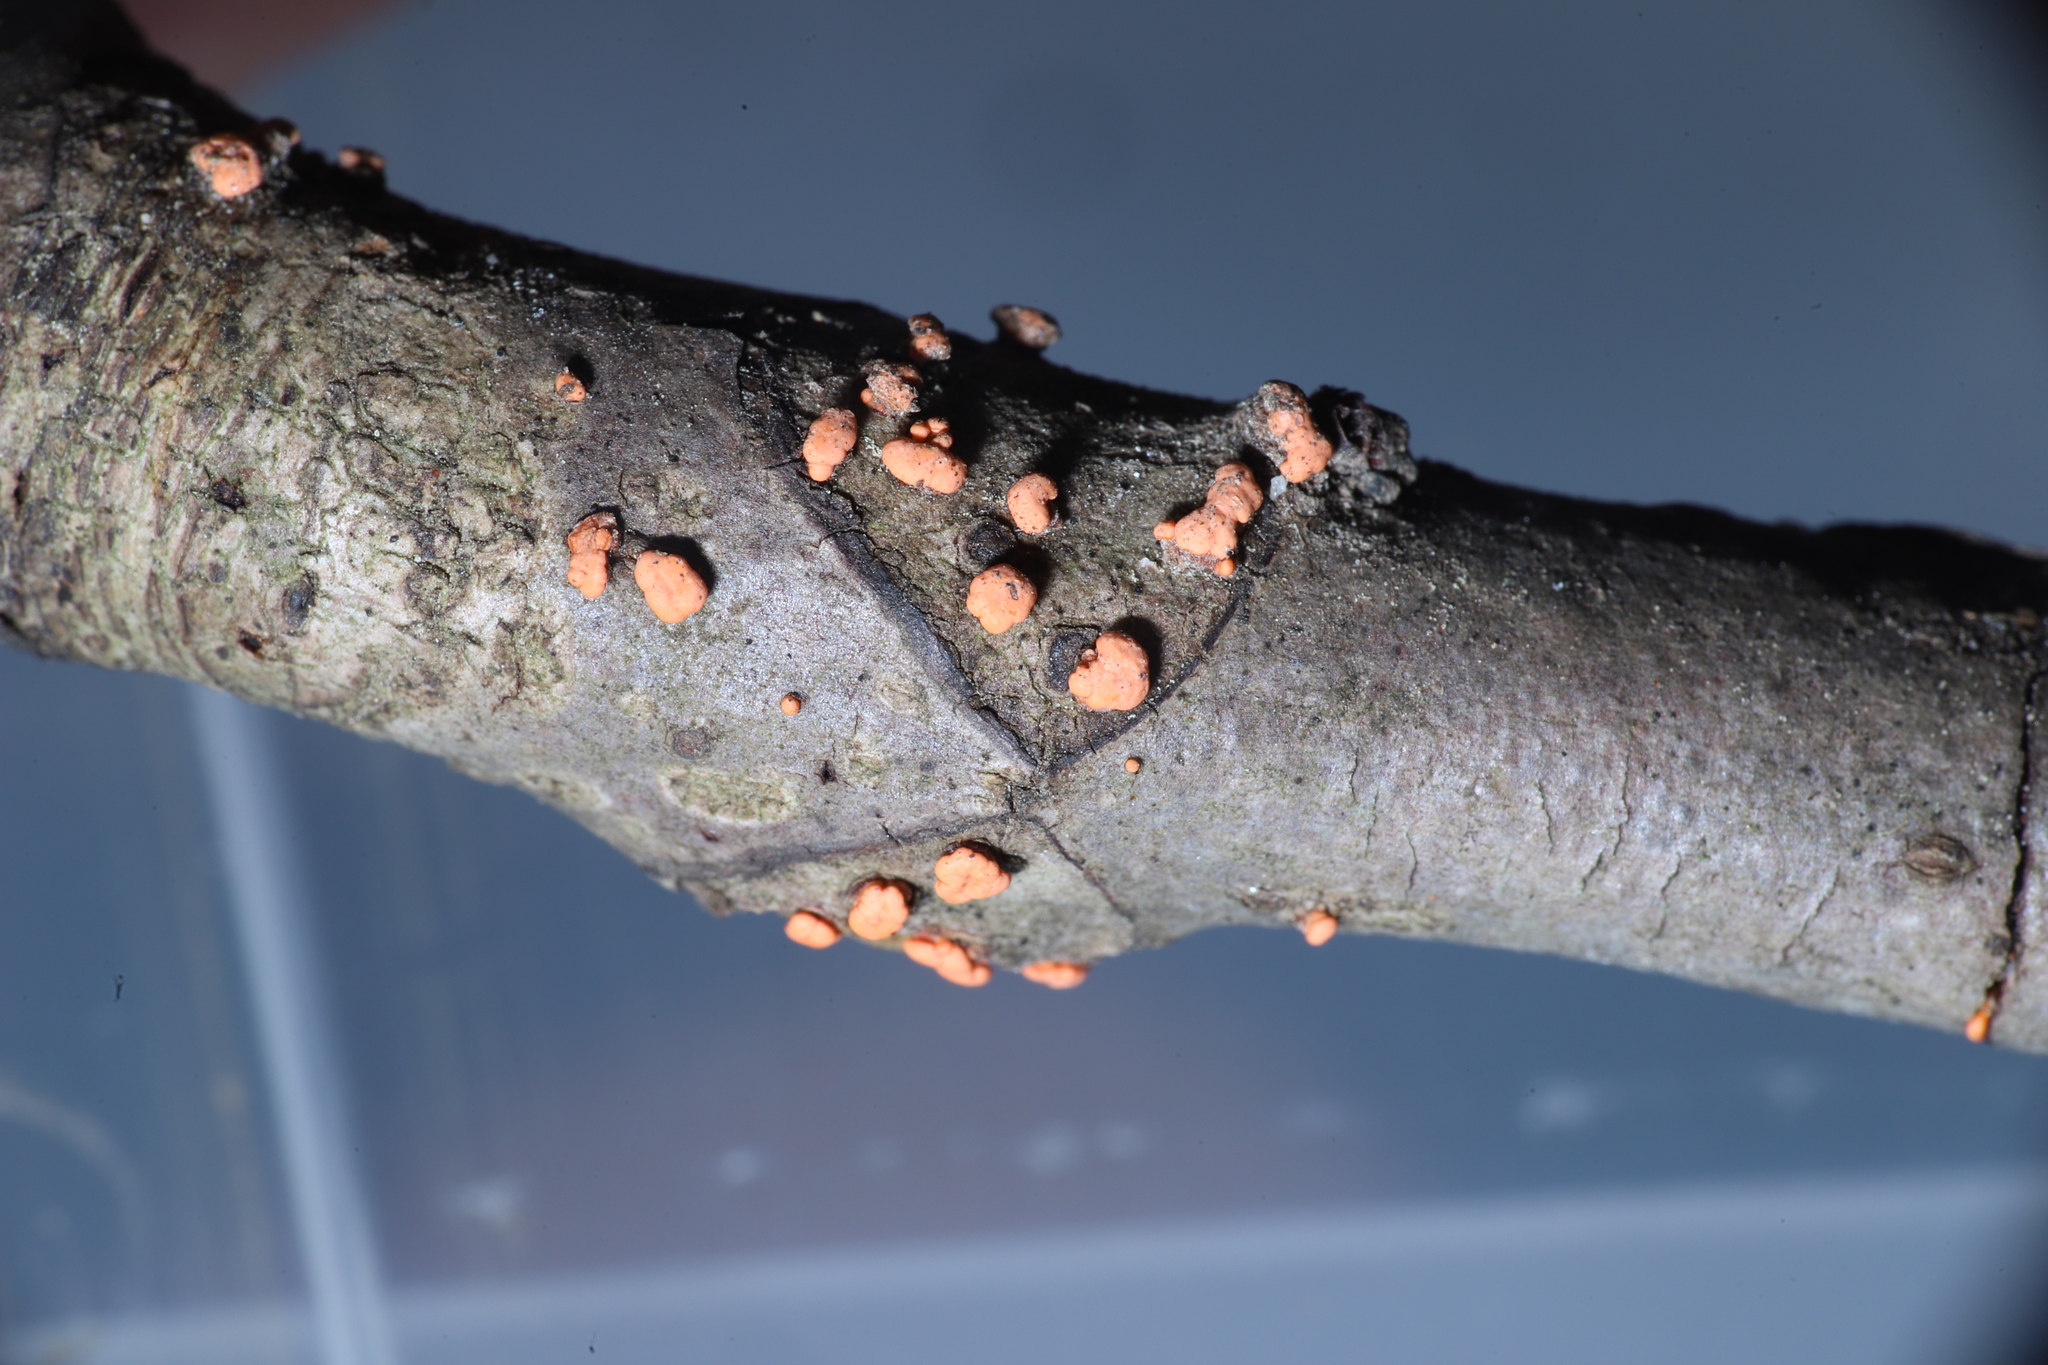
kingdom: Fungi
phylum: Ascomycota
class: Sordariomycetes
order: Hypocreales
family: Nectriaceae
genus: Nectria
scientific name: Nectria cinnabarina
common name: Coral spot
